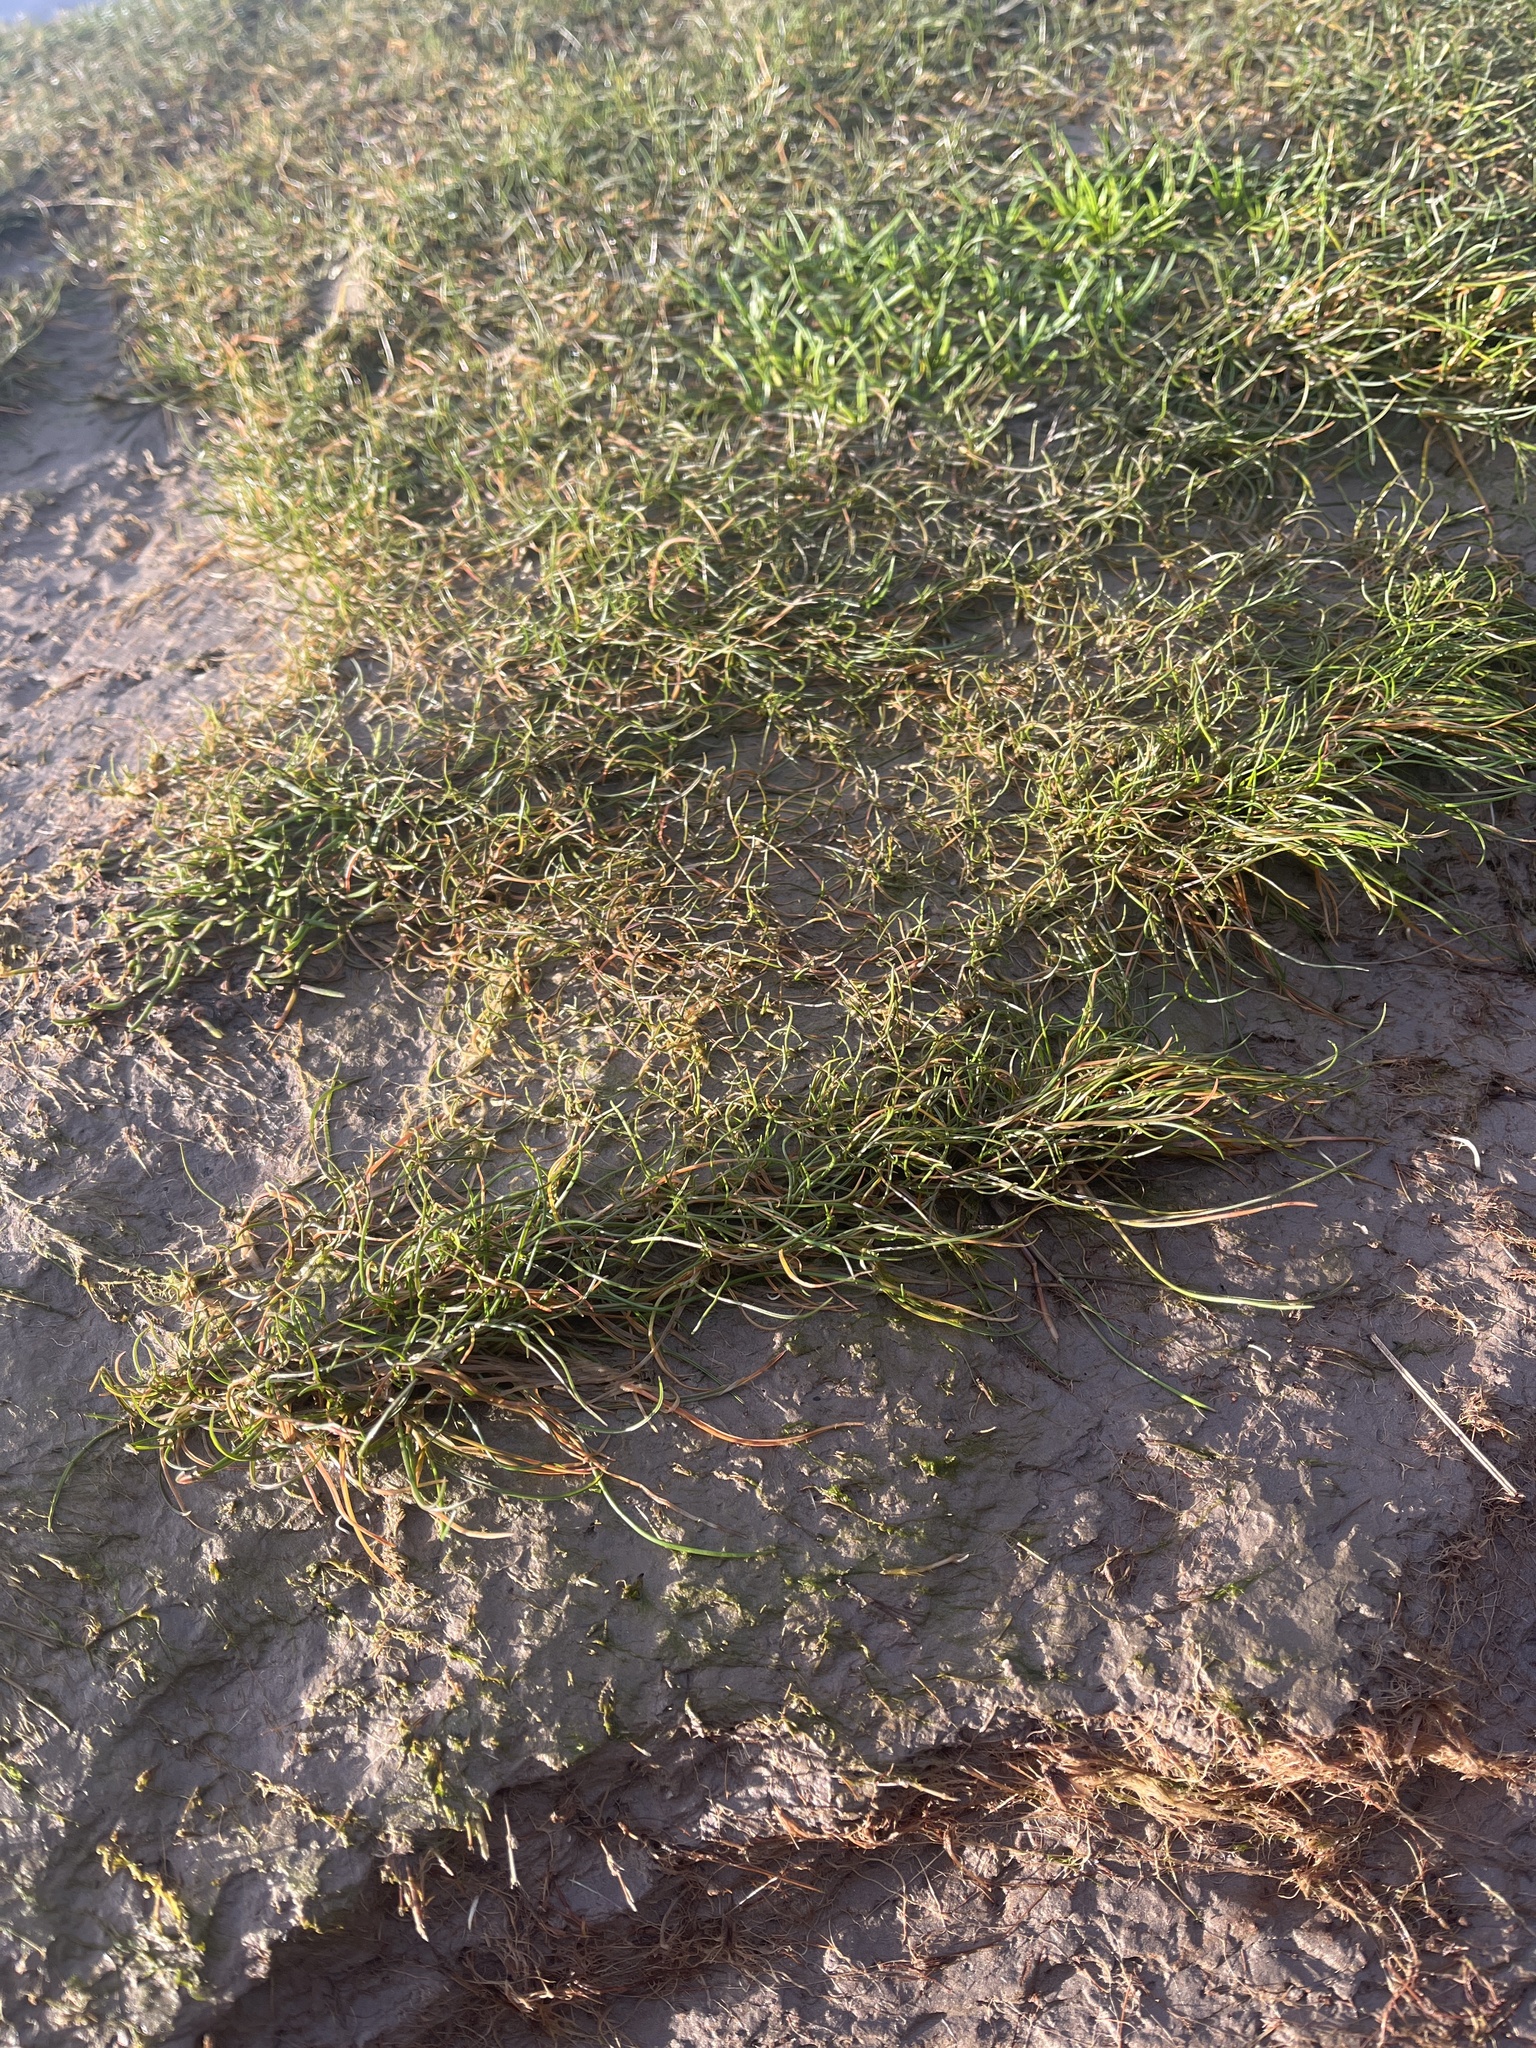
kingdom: Plantae
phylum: Tracheophyta
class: Liliopsida
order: Poales
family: Poaceae
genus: Puccinellia
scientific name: Puccinellia maritima
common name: Common saltmarsh grass
